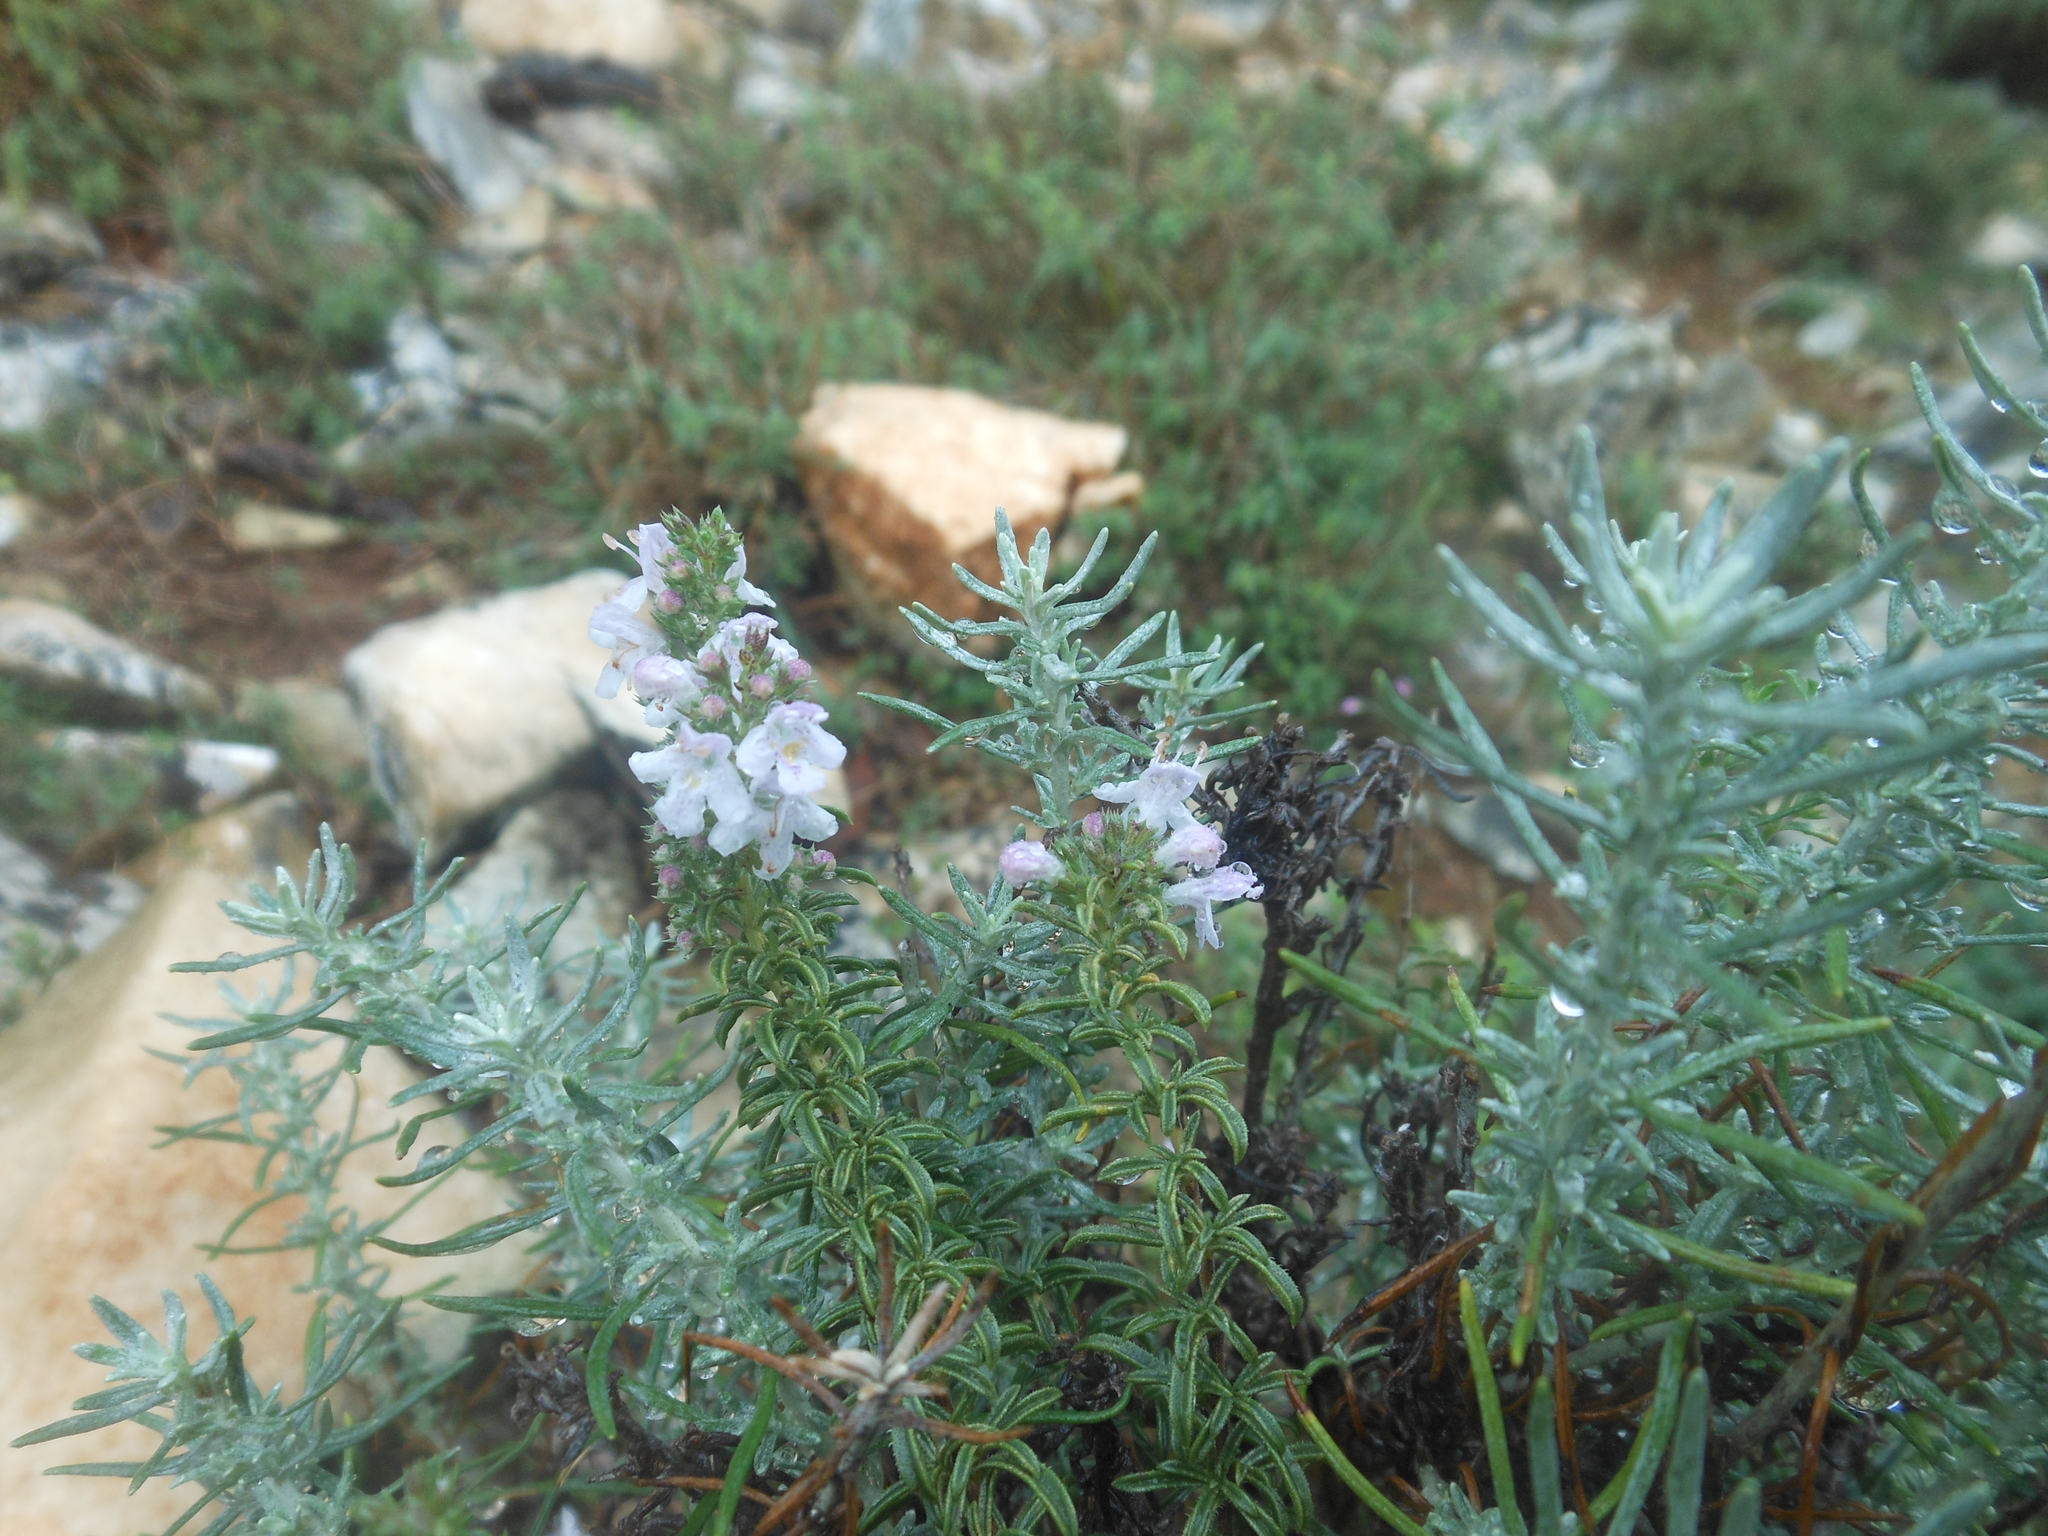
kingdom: Plantae
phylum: Tracheophyta
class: Magnoliopsida
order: Lamiales
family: Lamiaceae
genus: Satureja
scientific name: Satureja montana
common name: Winter savory
